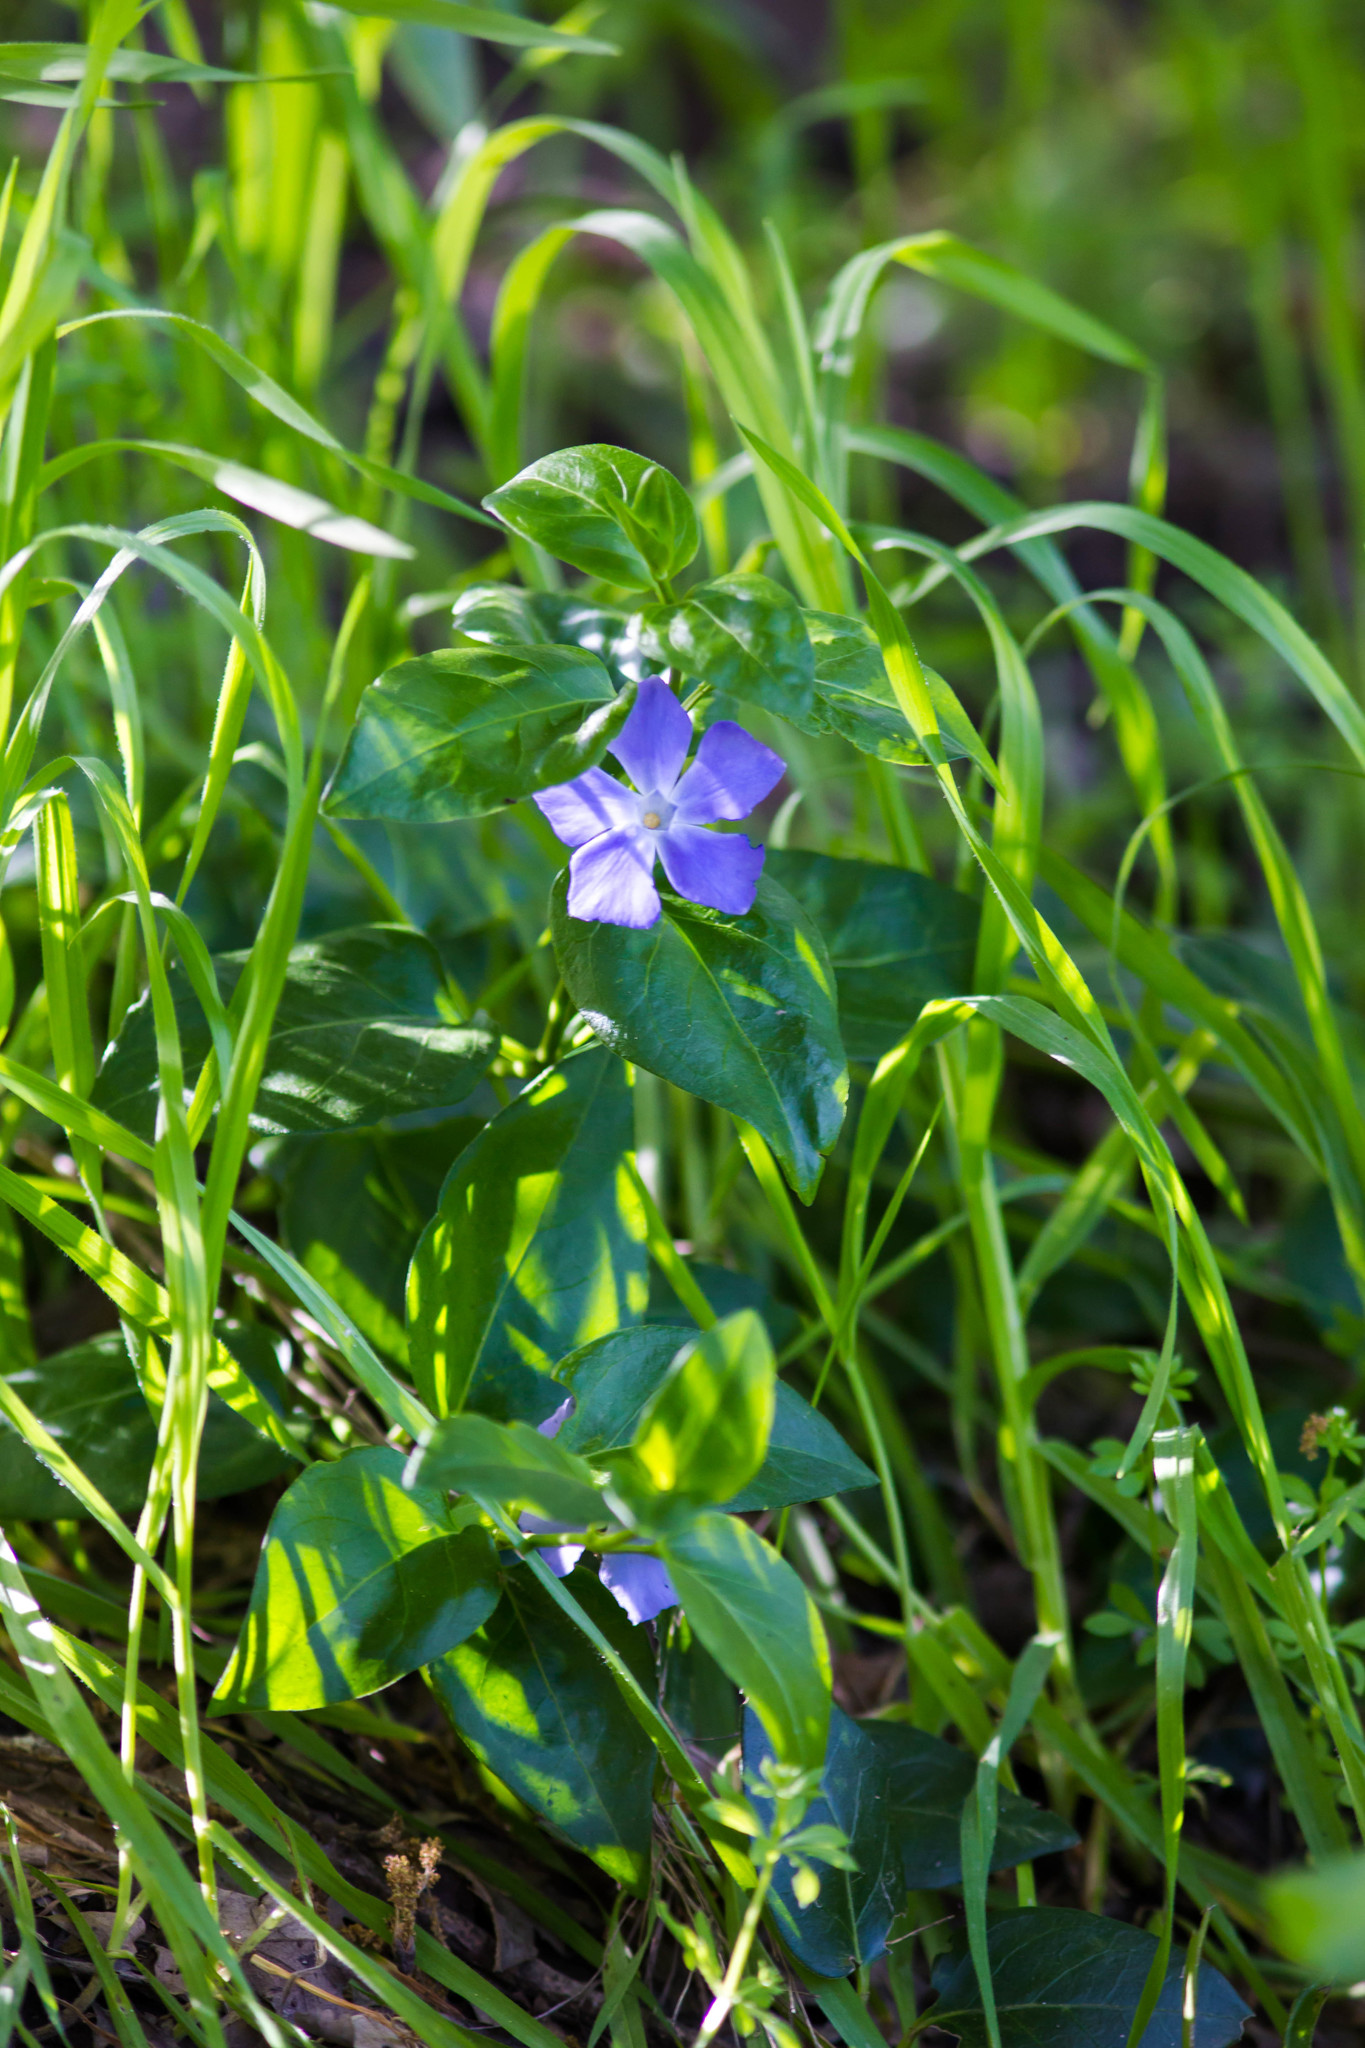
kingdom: Plantae
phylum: Tracheophyta
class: Magnoliopsida
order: Gentianales
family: Apocynaceae
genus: Vinca
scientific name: Vinca major
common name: Greater periwinkle
